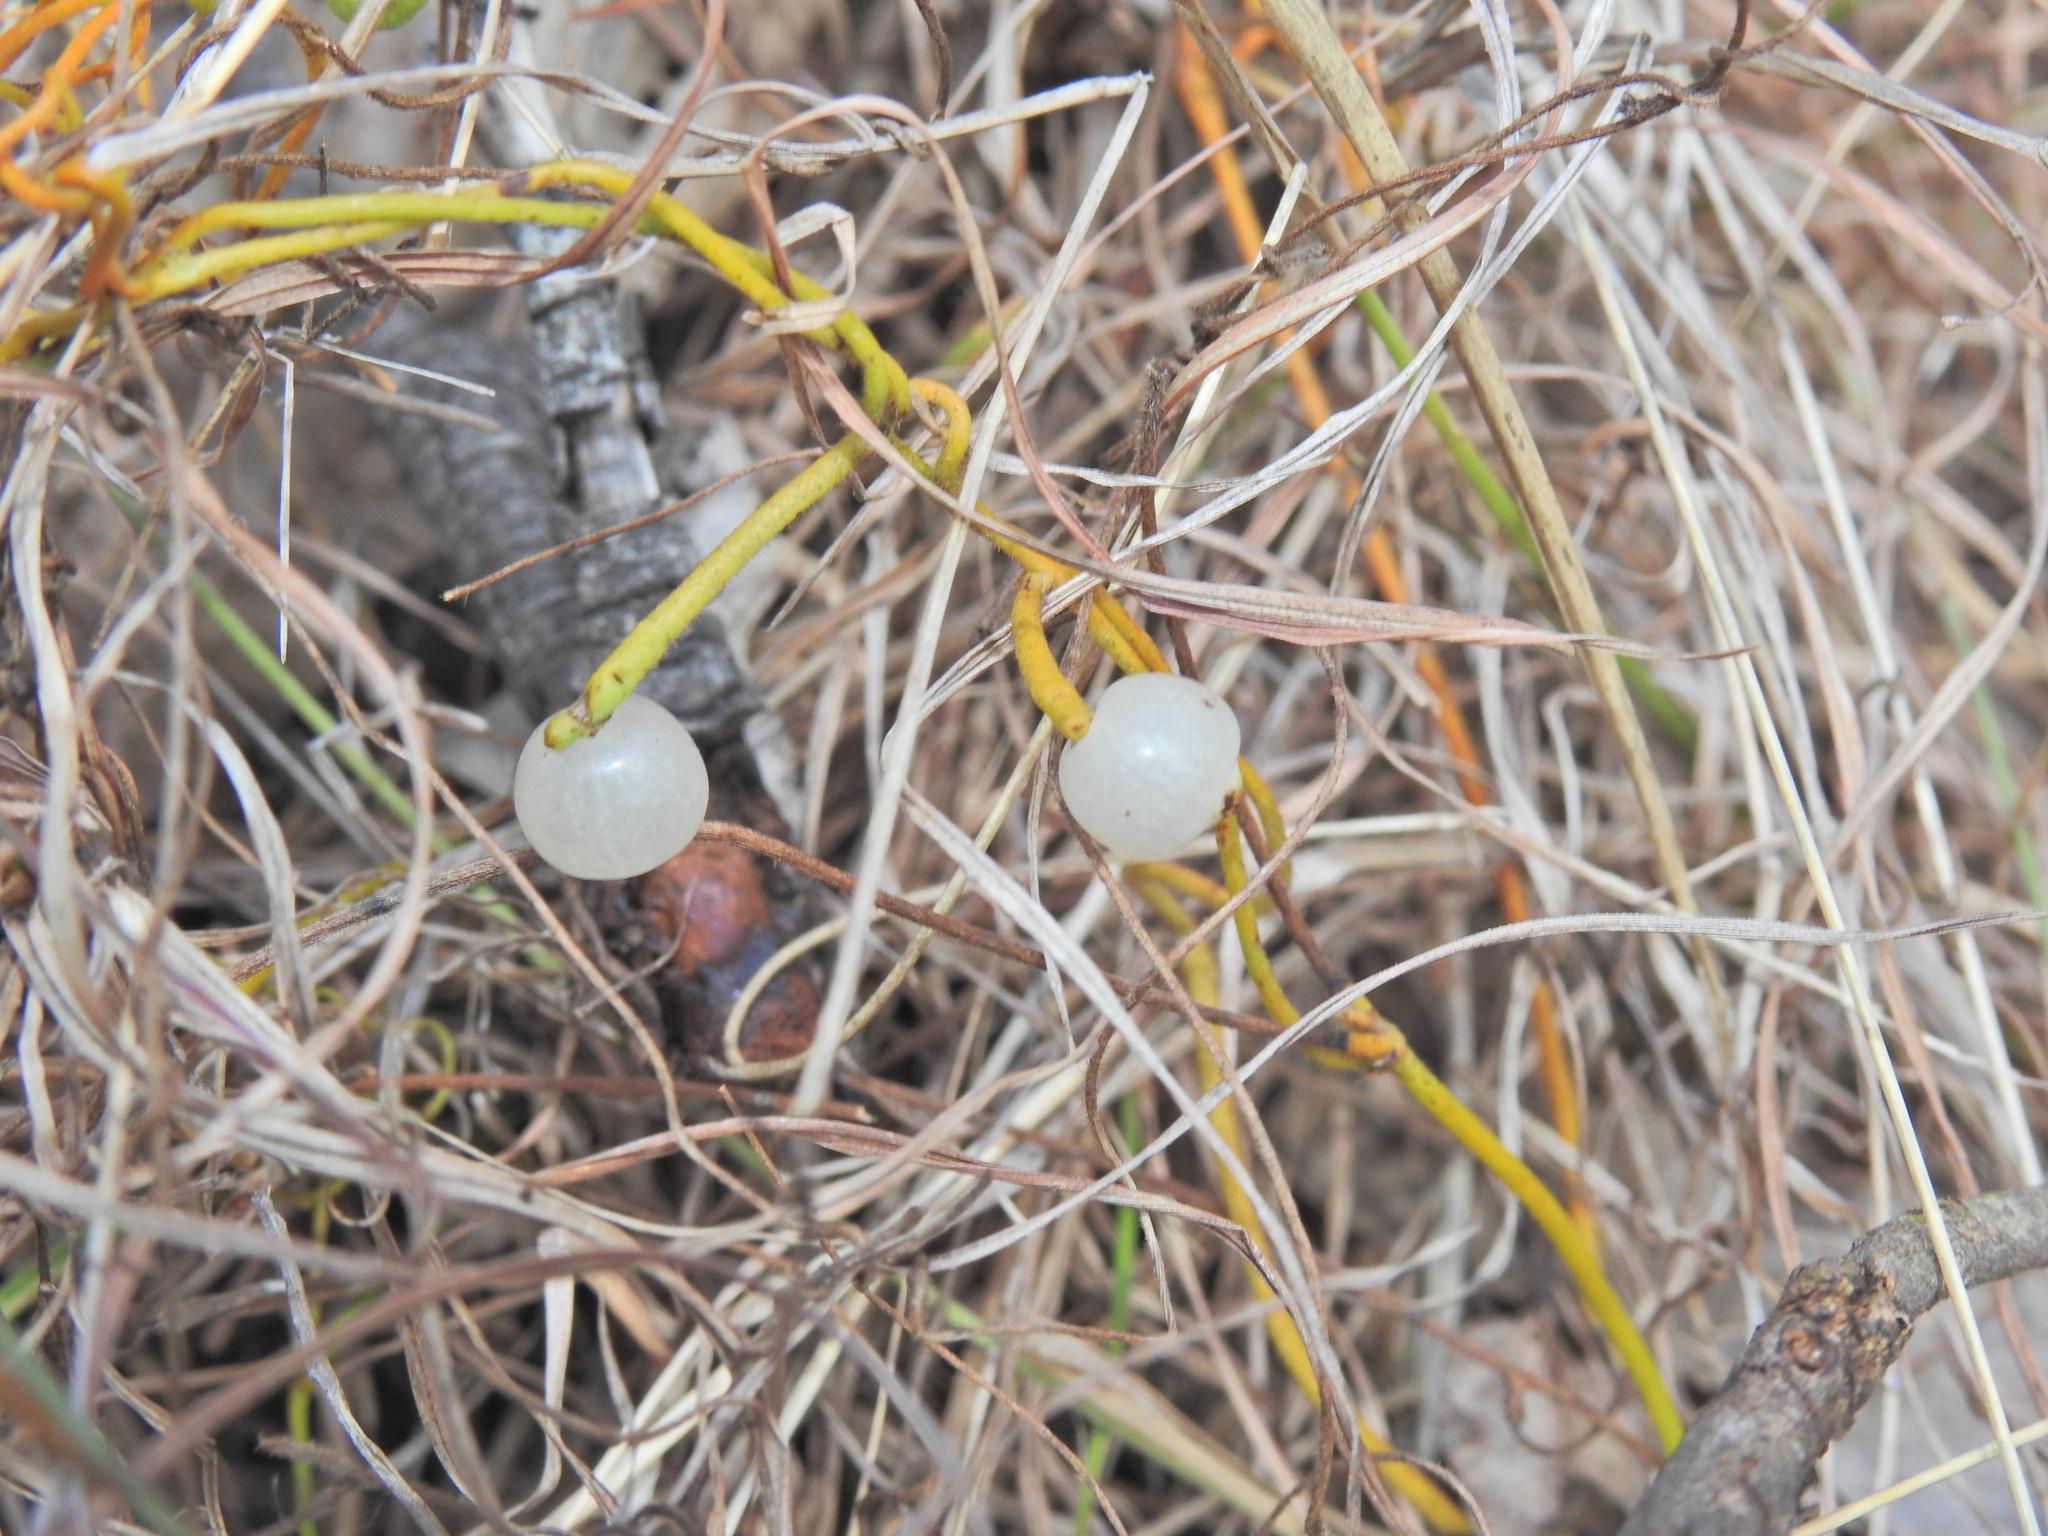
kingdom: Plantae
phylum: Tracheophyta
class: Magnoliopsida
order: Laurales
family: Lauraceae
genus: Cassytha
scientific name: Cassytha filiformis
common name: Dodder-laurel
